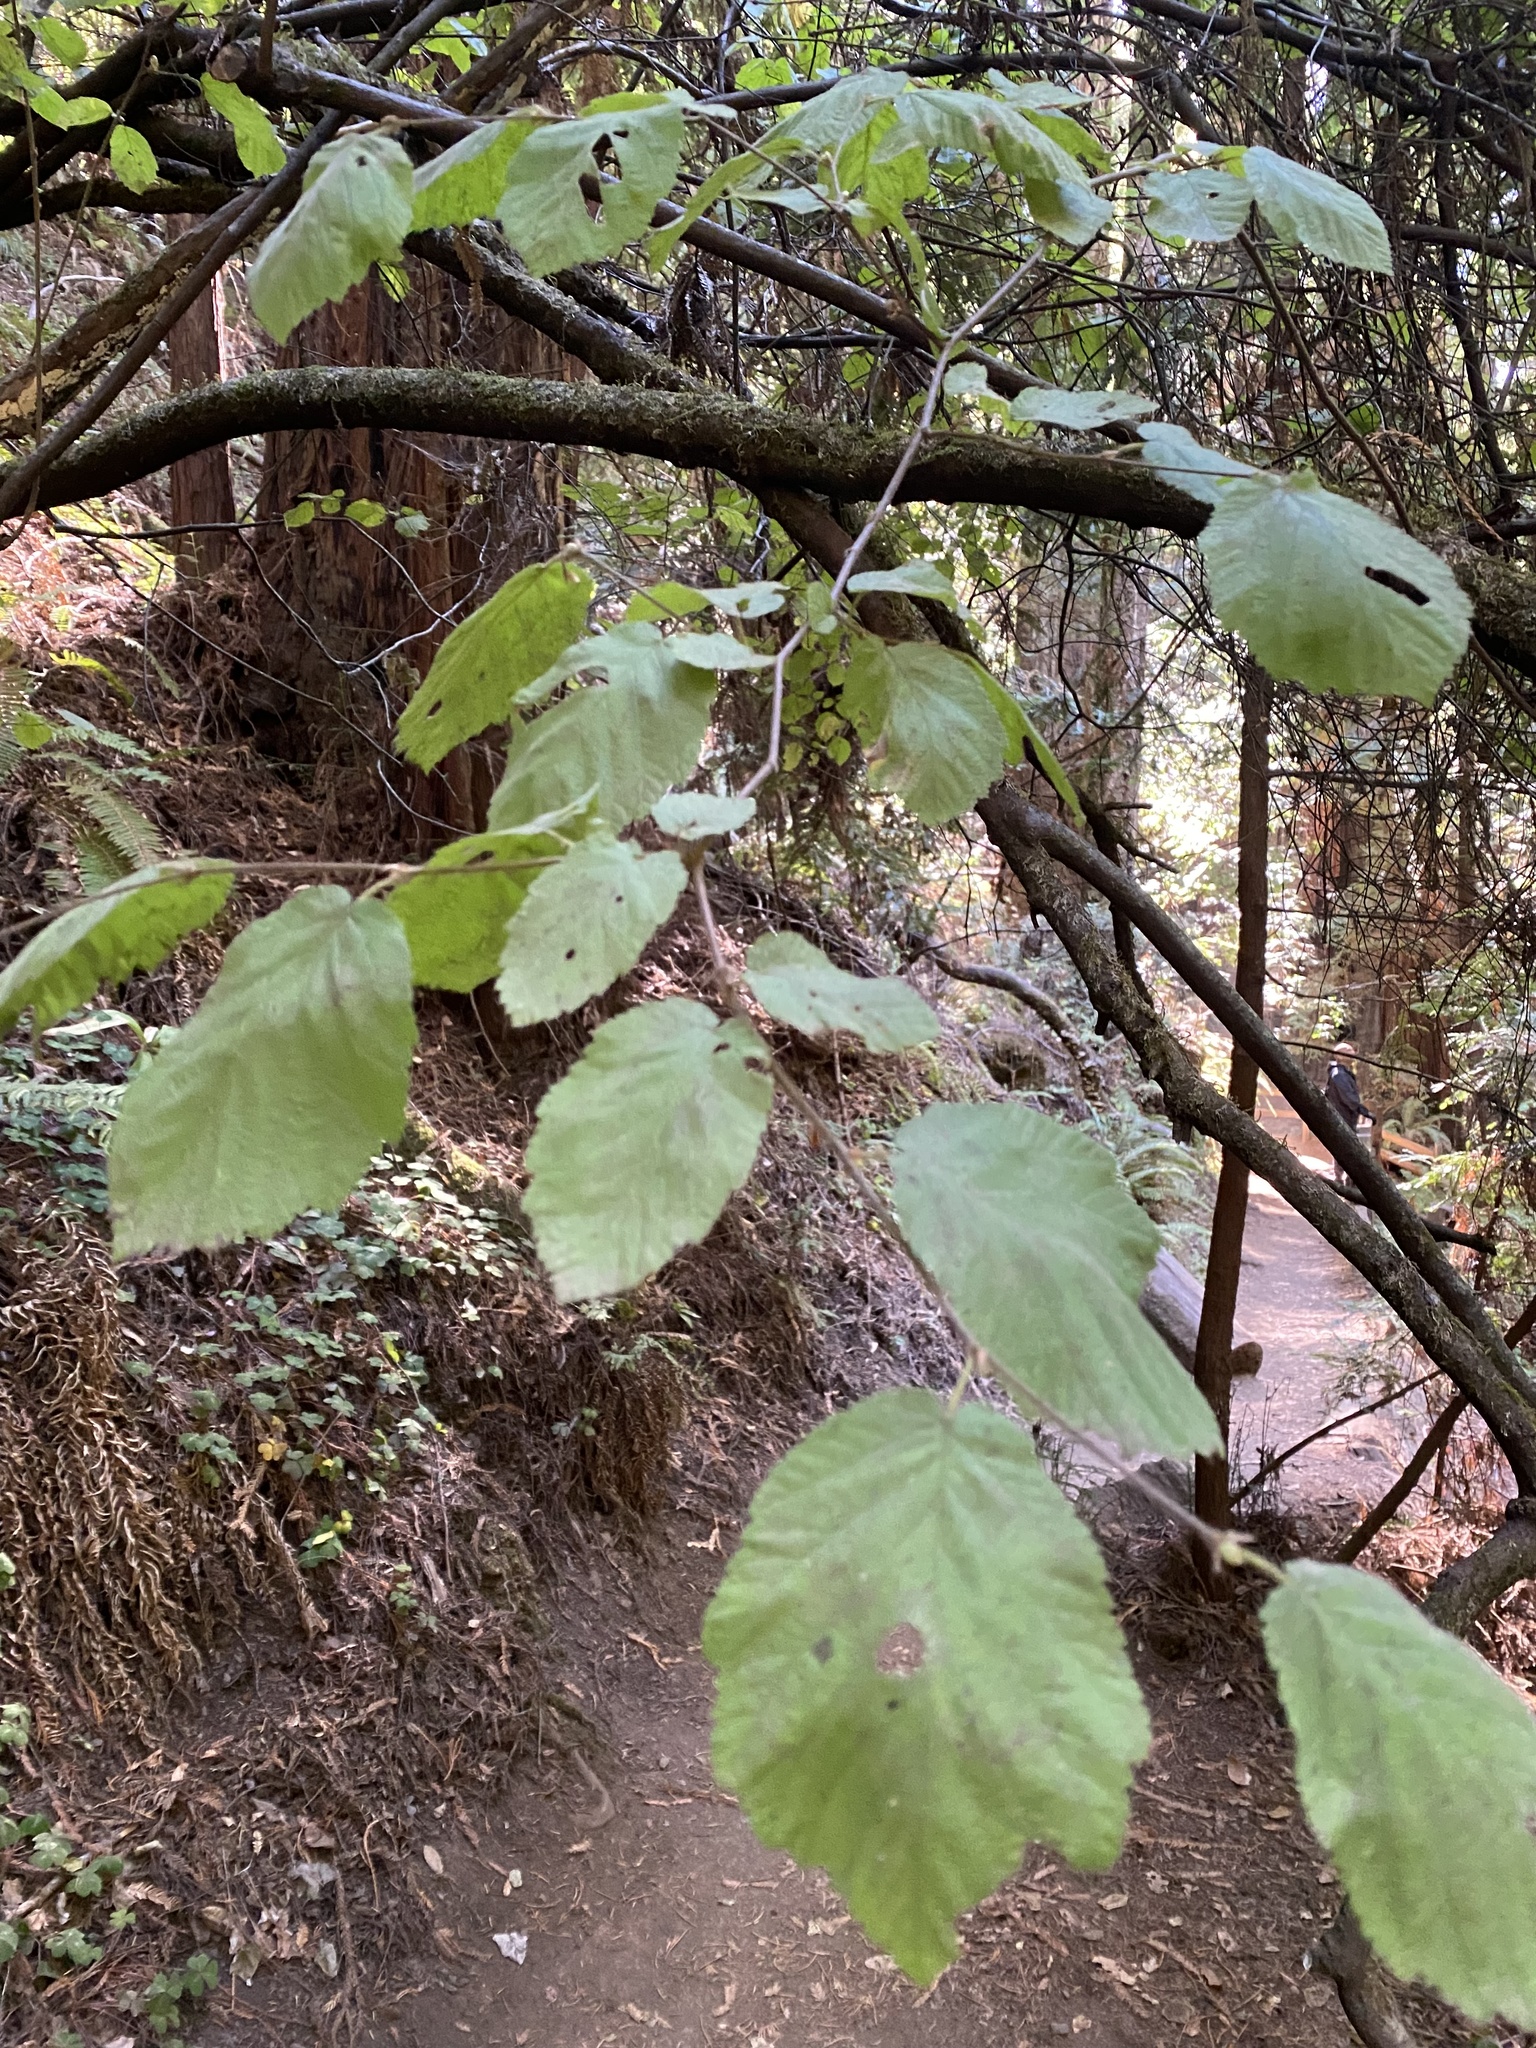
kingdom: Plantae
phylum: Tracheophyta
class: Magnoliopsida
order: Fagales
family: Betulaceae
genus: Corylus
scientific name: Corylus cornuta
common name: Beaked hazel
